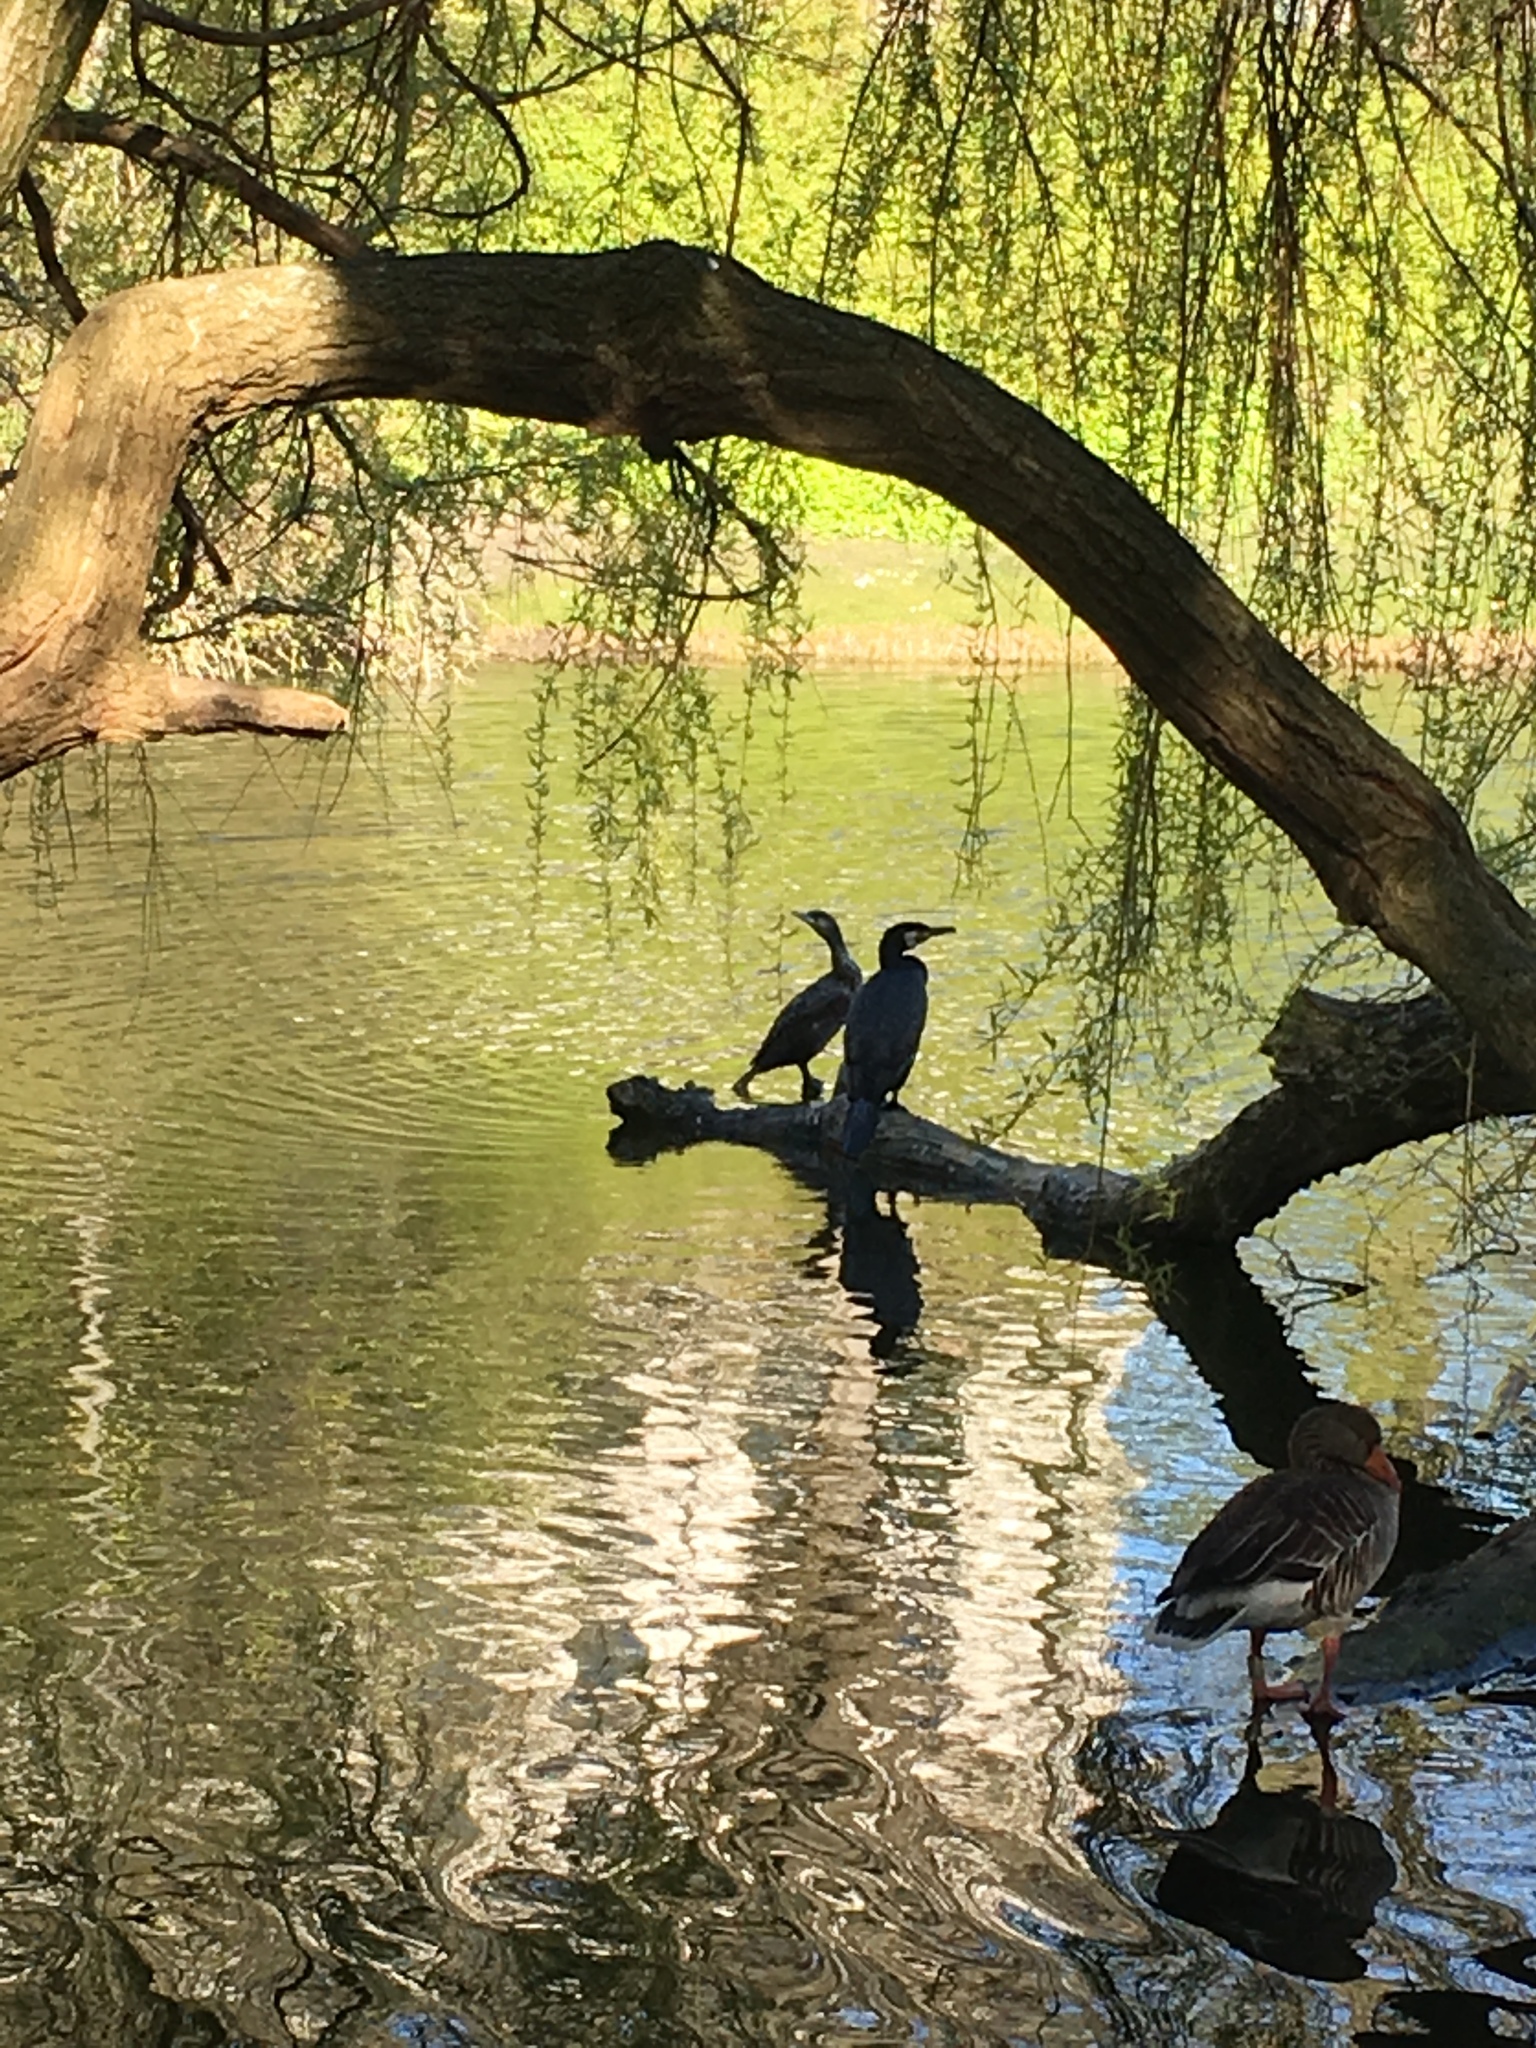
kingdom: Animalia
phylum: Chordata
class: Aves
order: Suliformes
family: Phalacrocoracidae
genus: Phalacrocorax
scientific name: Phalacrocorax carbo
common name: Great cormorant
